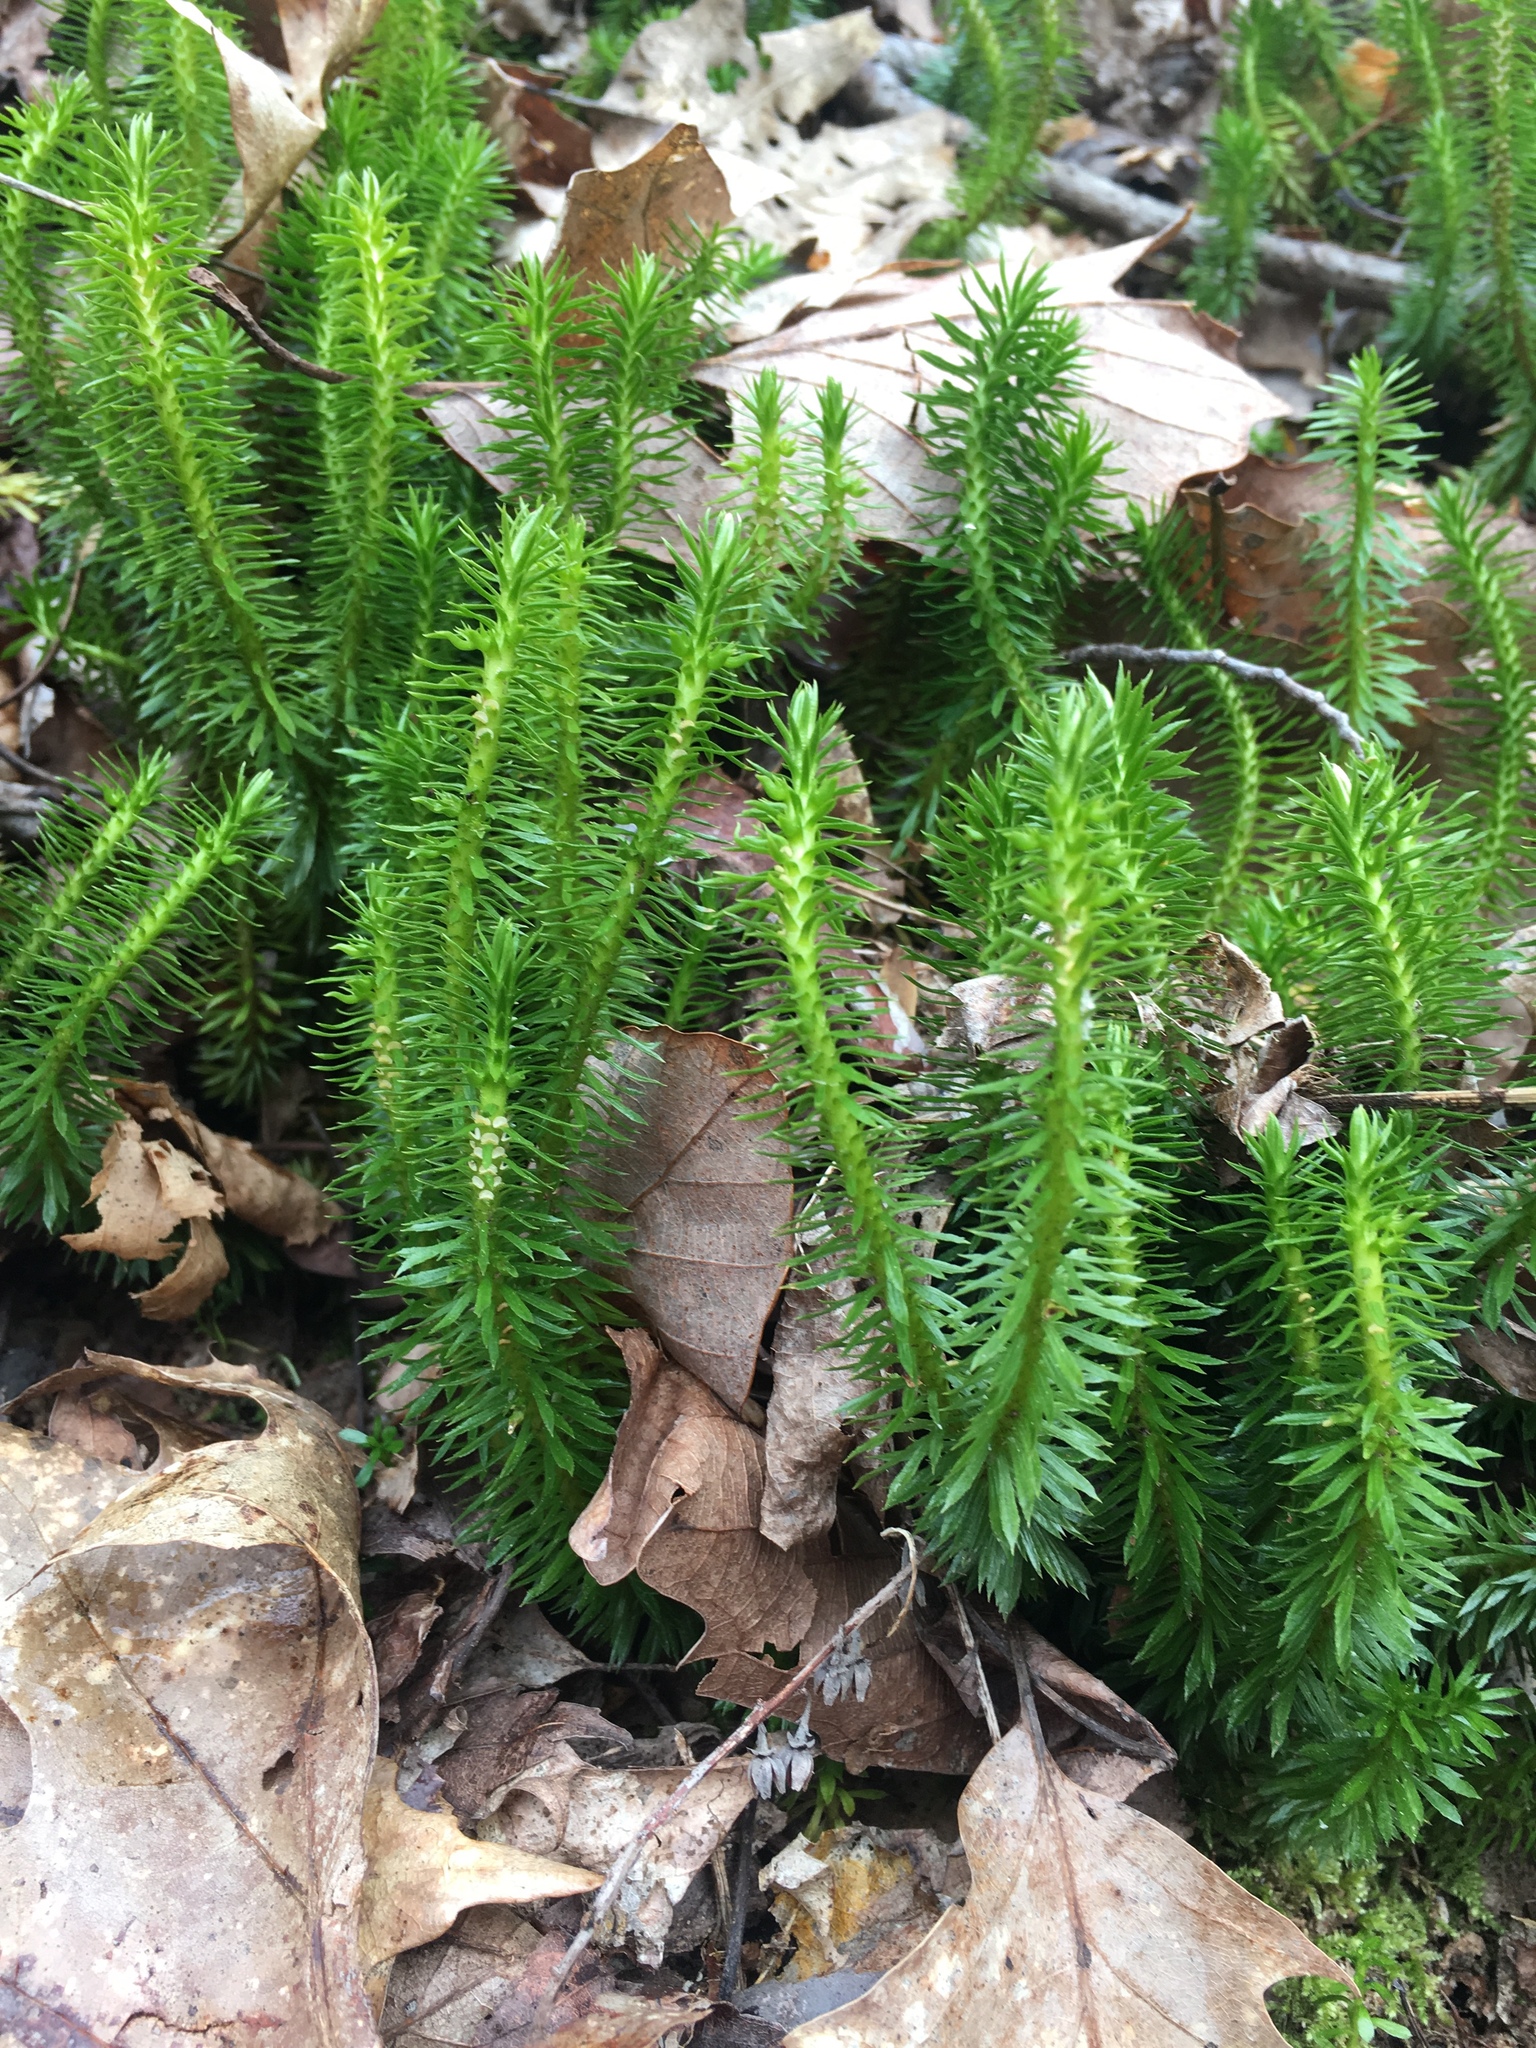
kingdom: Plantae
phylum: Tracheophyta
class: Lycopodiopsida
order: Lycopodiales
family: Lycopodiaceae
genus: Huperzia
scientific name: Huperzia lucidula
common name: Shining clubmoss
